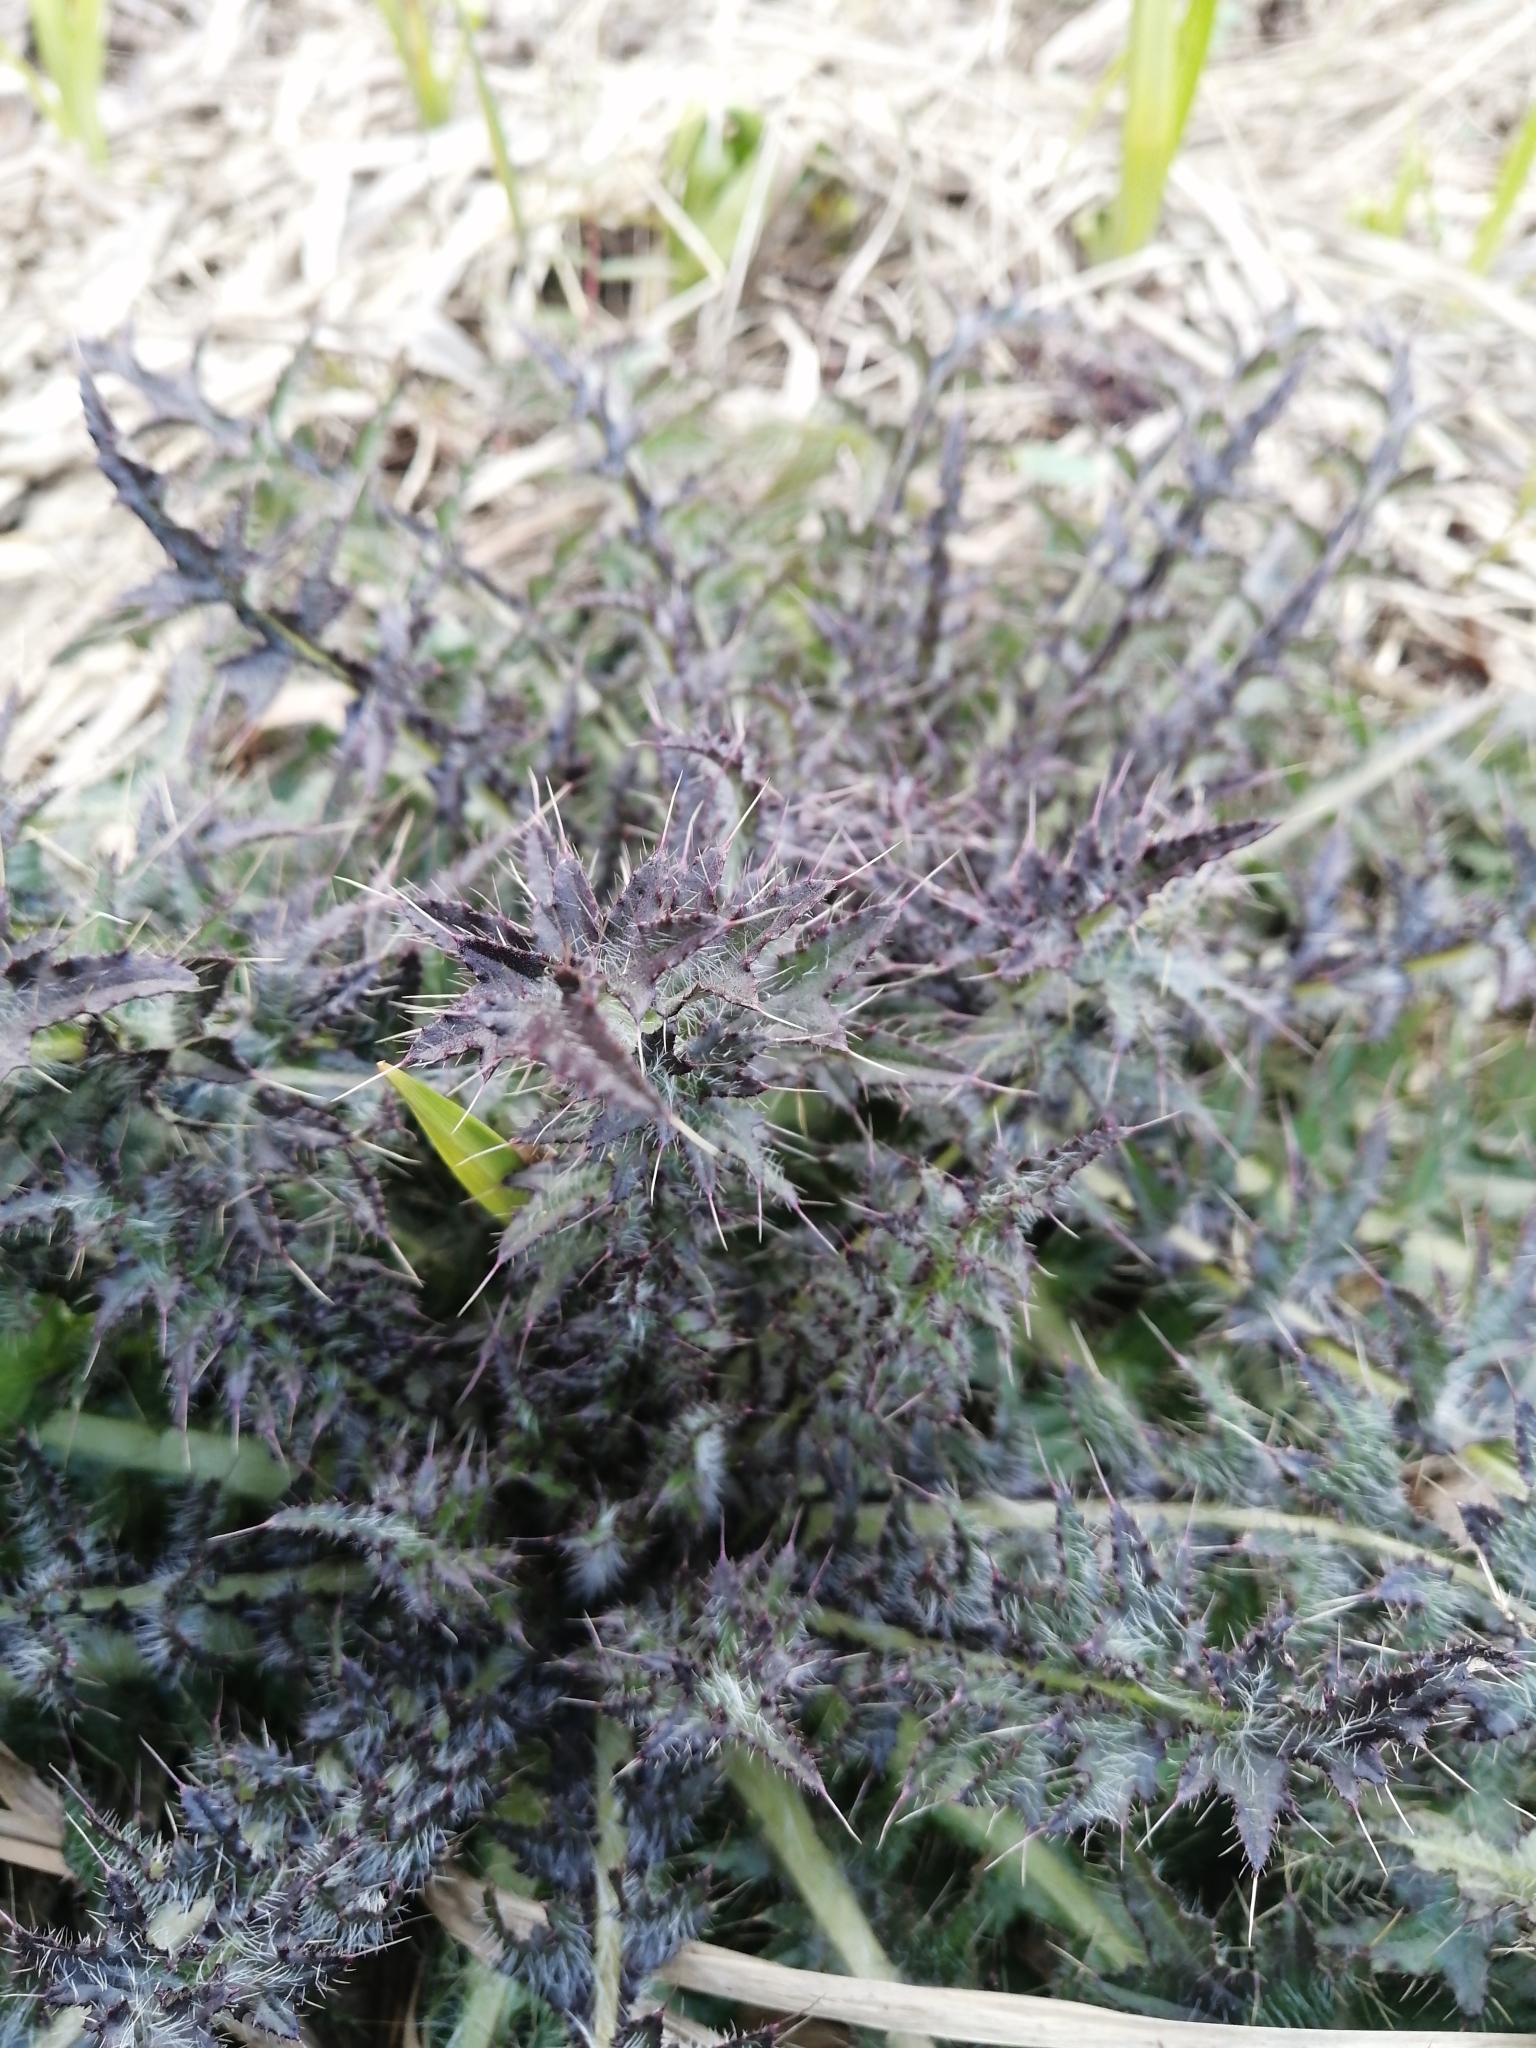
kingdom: Plantae
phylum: Tracheophyta
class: Magnoliopsida
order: Asterales
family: Asteraceae
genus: Cirsium
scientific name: Cirsium palustre
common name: Marsh thistle
